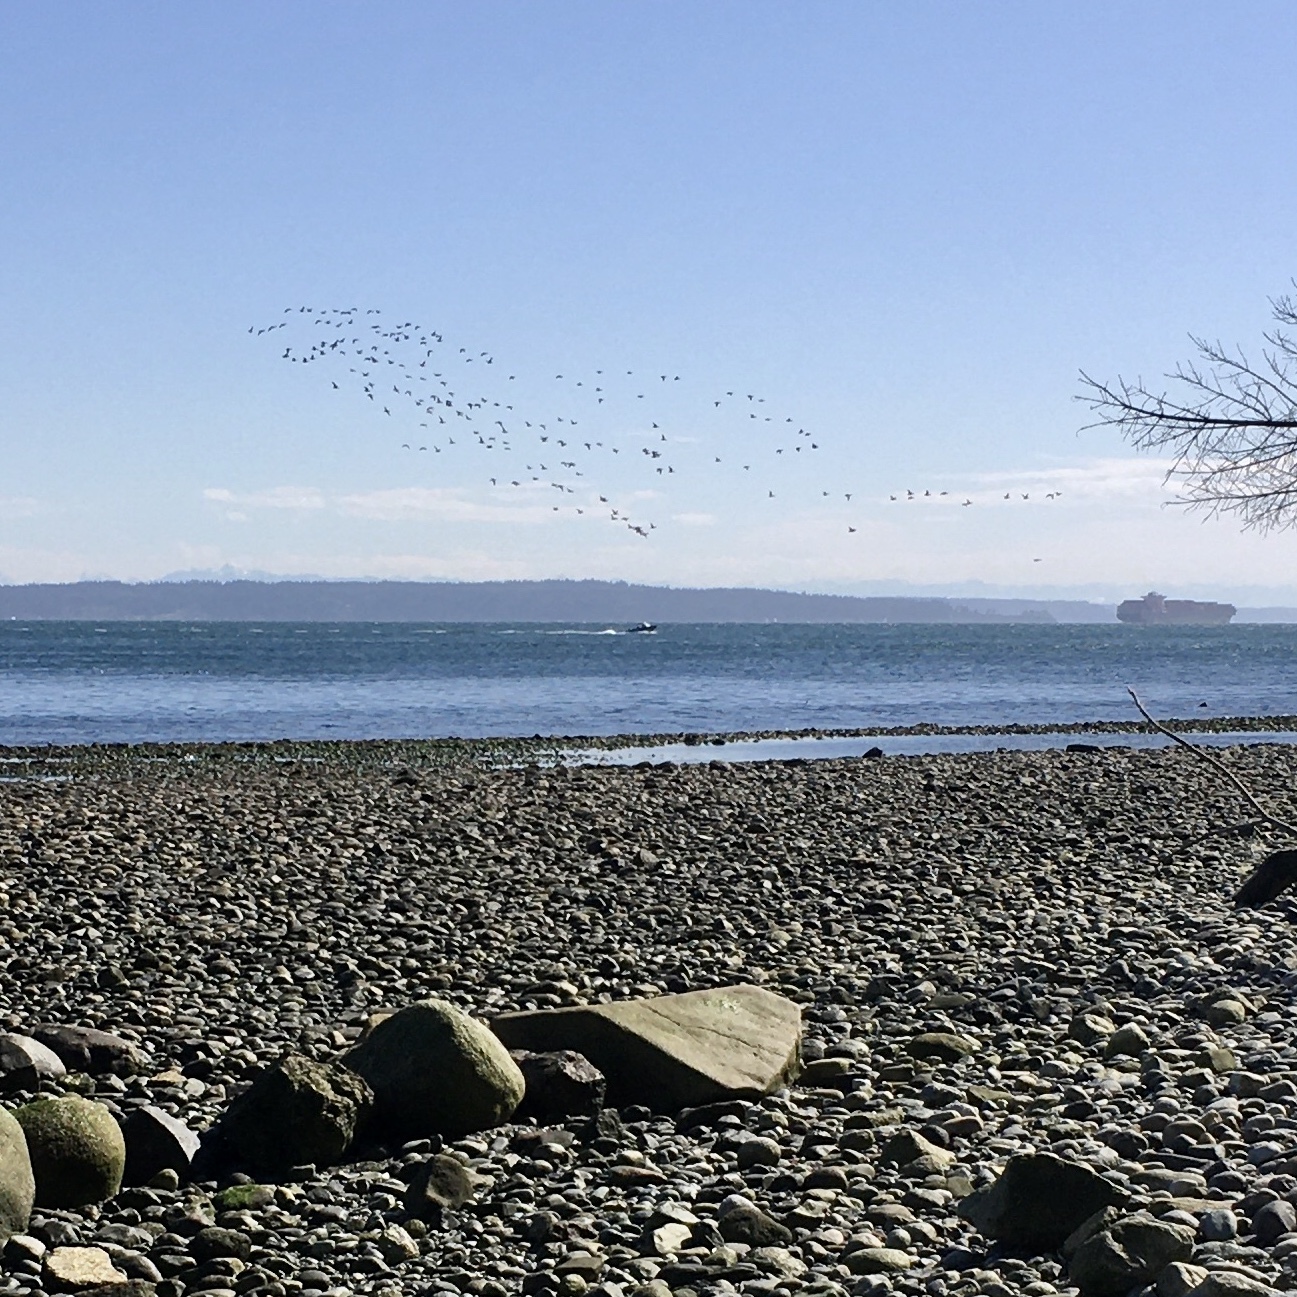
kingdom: Animalia
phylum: Chordata
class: Aves
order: Anseriformes
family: Anatidae
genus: Branta
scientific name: Branta bernicla
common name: Brant goose
